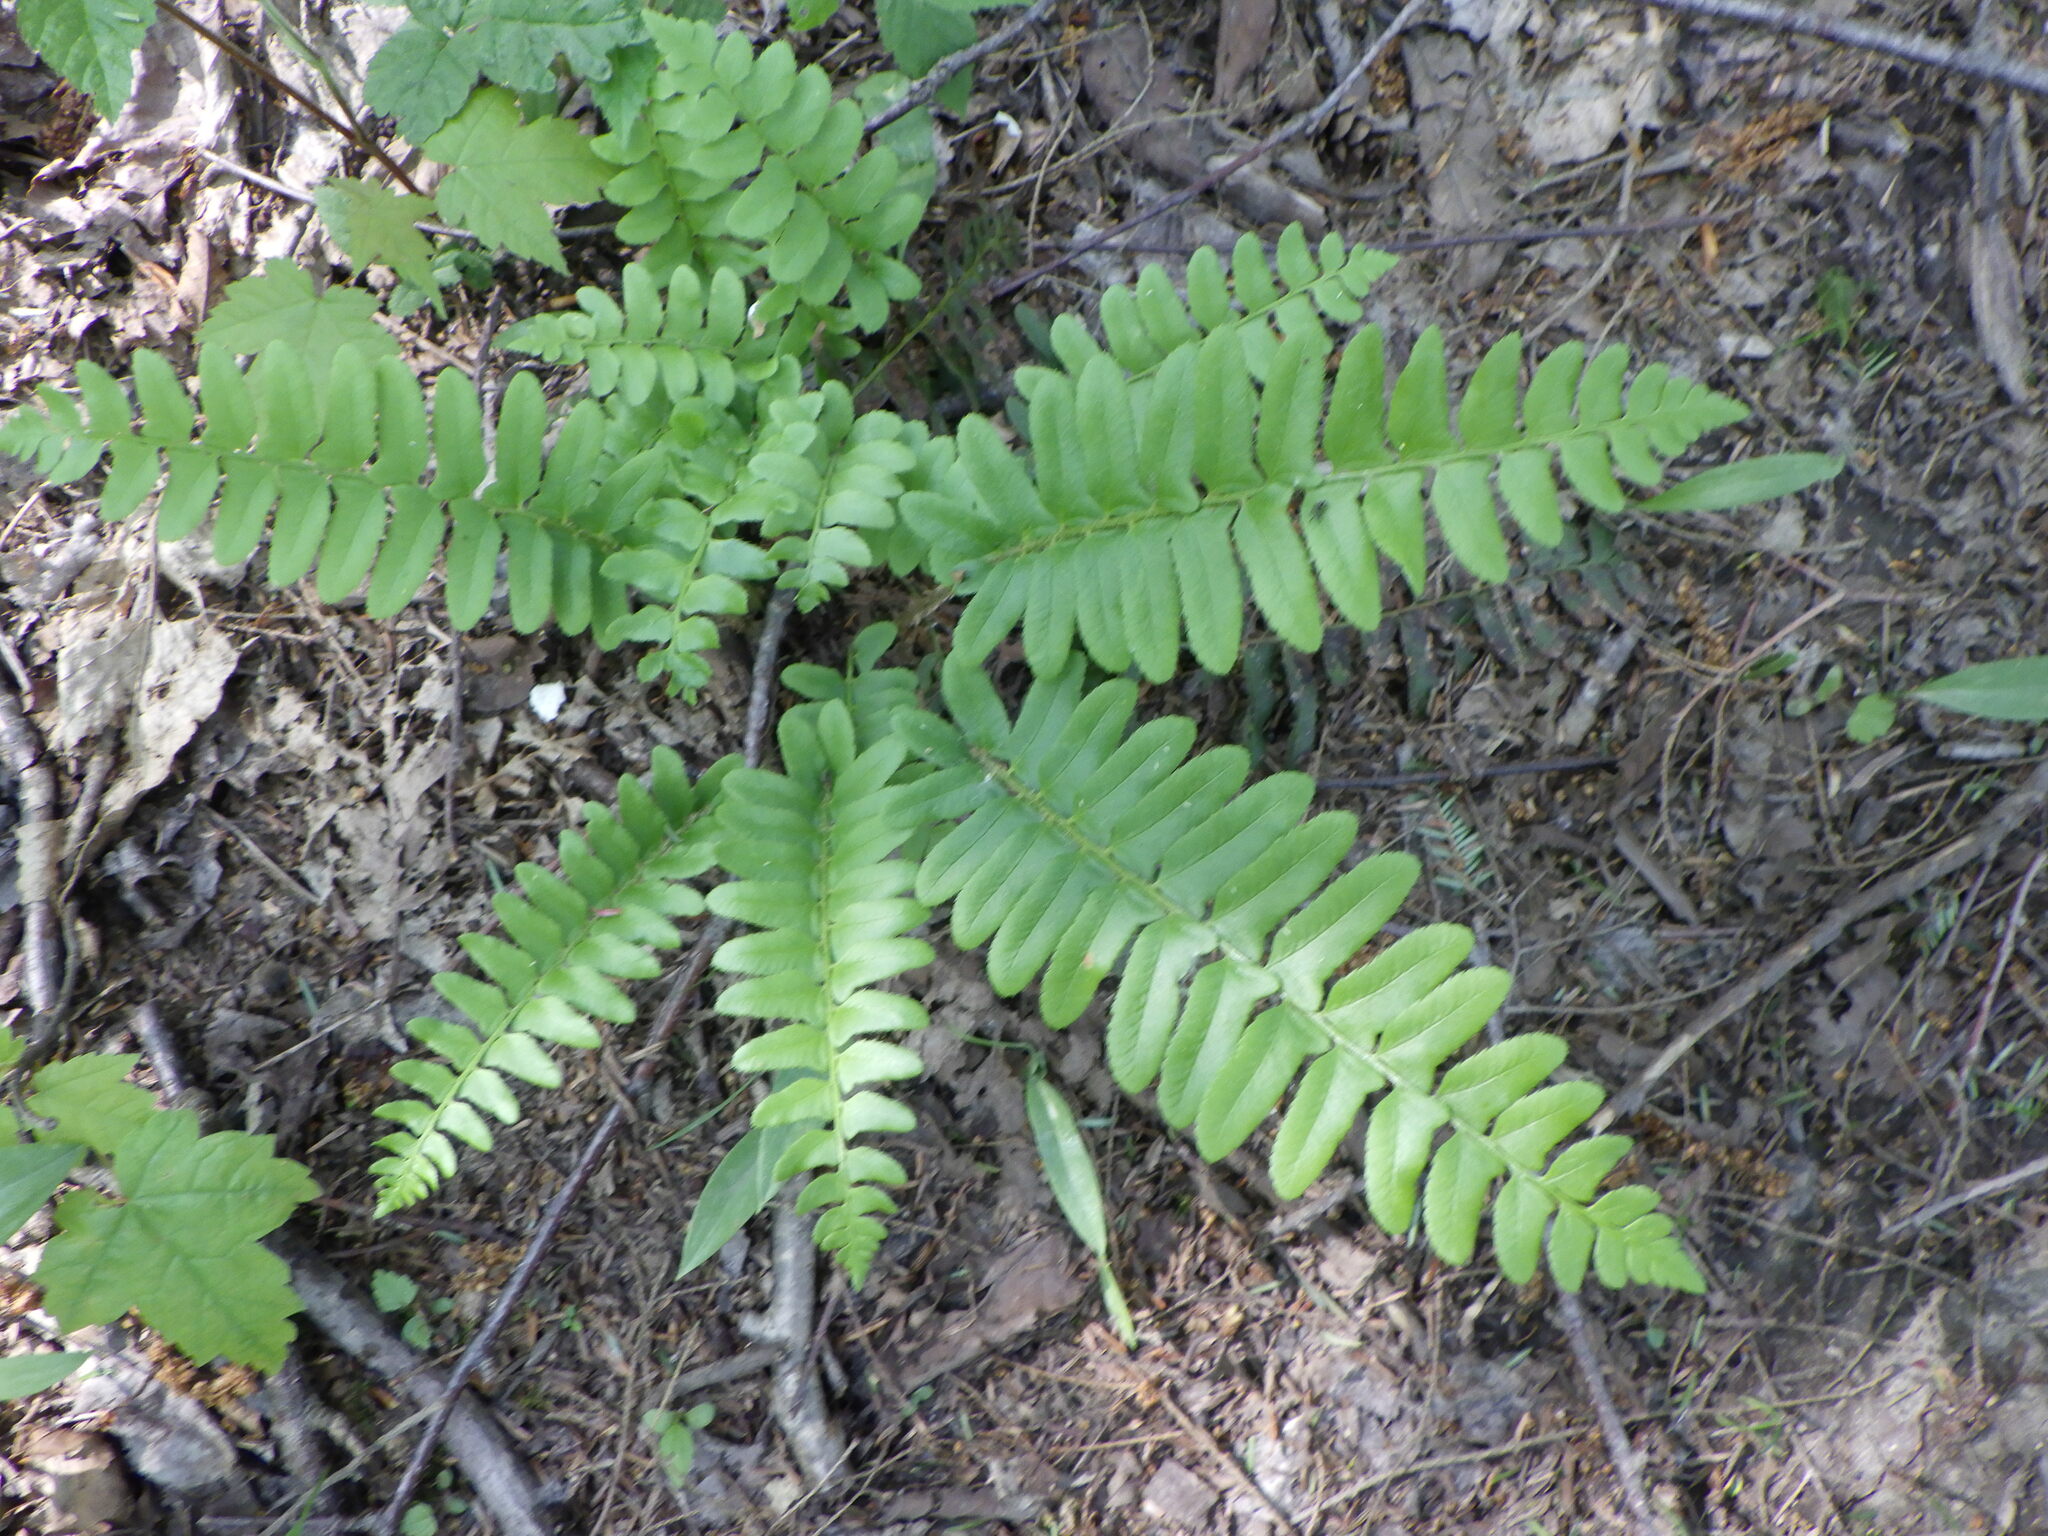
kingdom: Plantae
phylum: Tracheophyta
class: Polypodiopsida
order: Polypodiales
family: Dryopteridaceae
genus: Polystichum
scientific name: Polystichum acrostichoides
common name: Christmas fern
